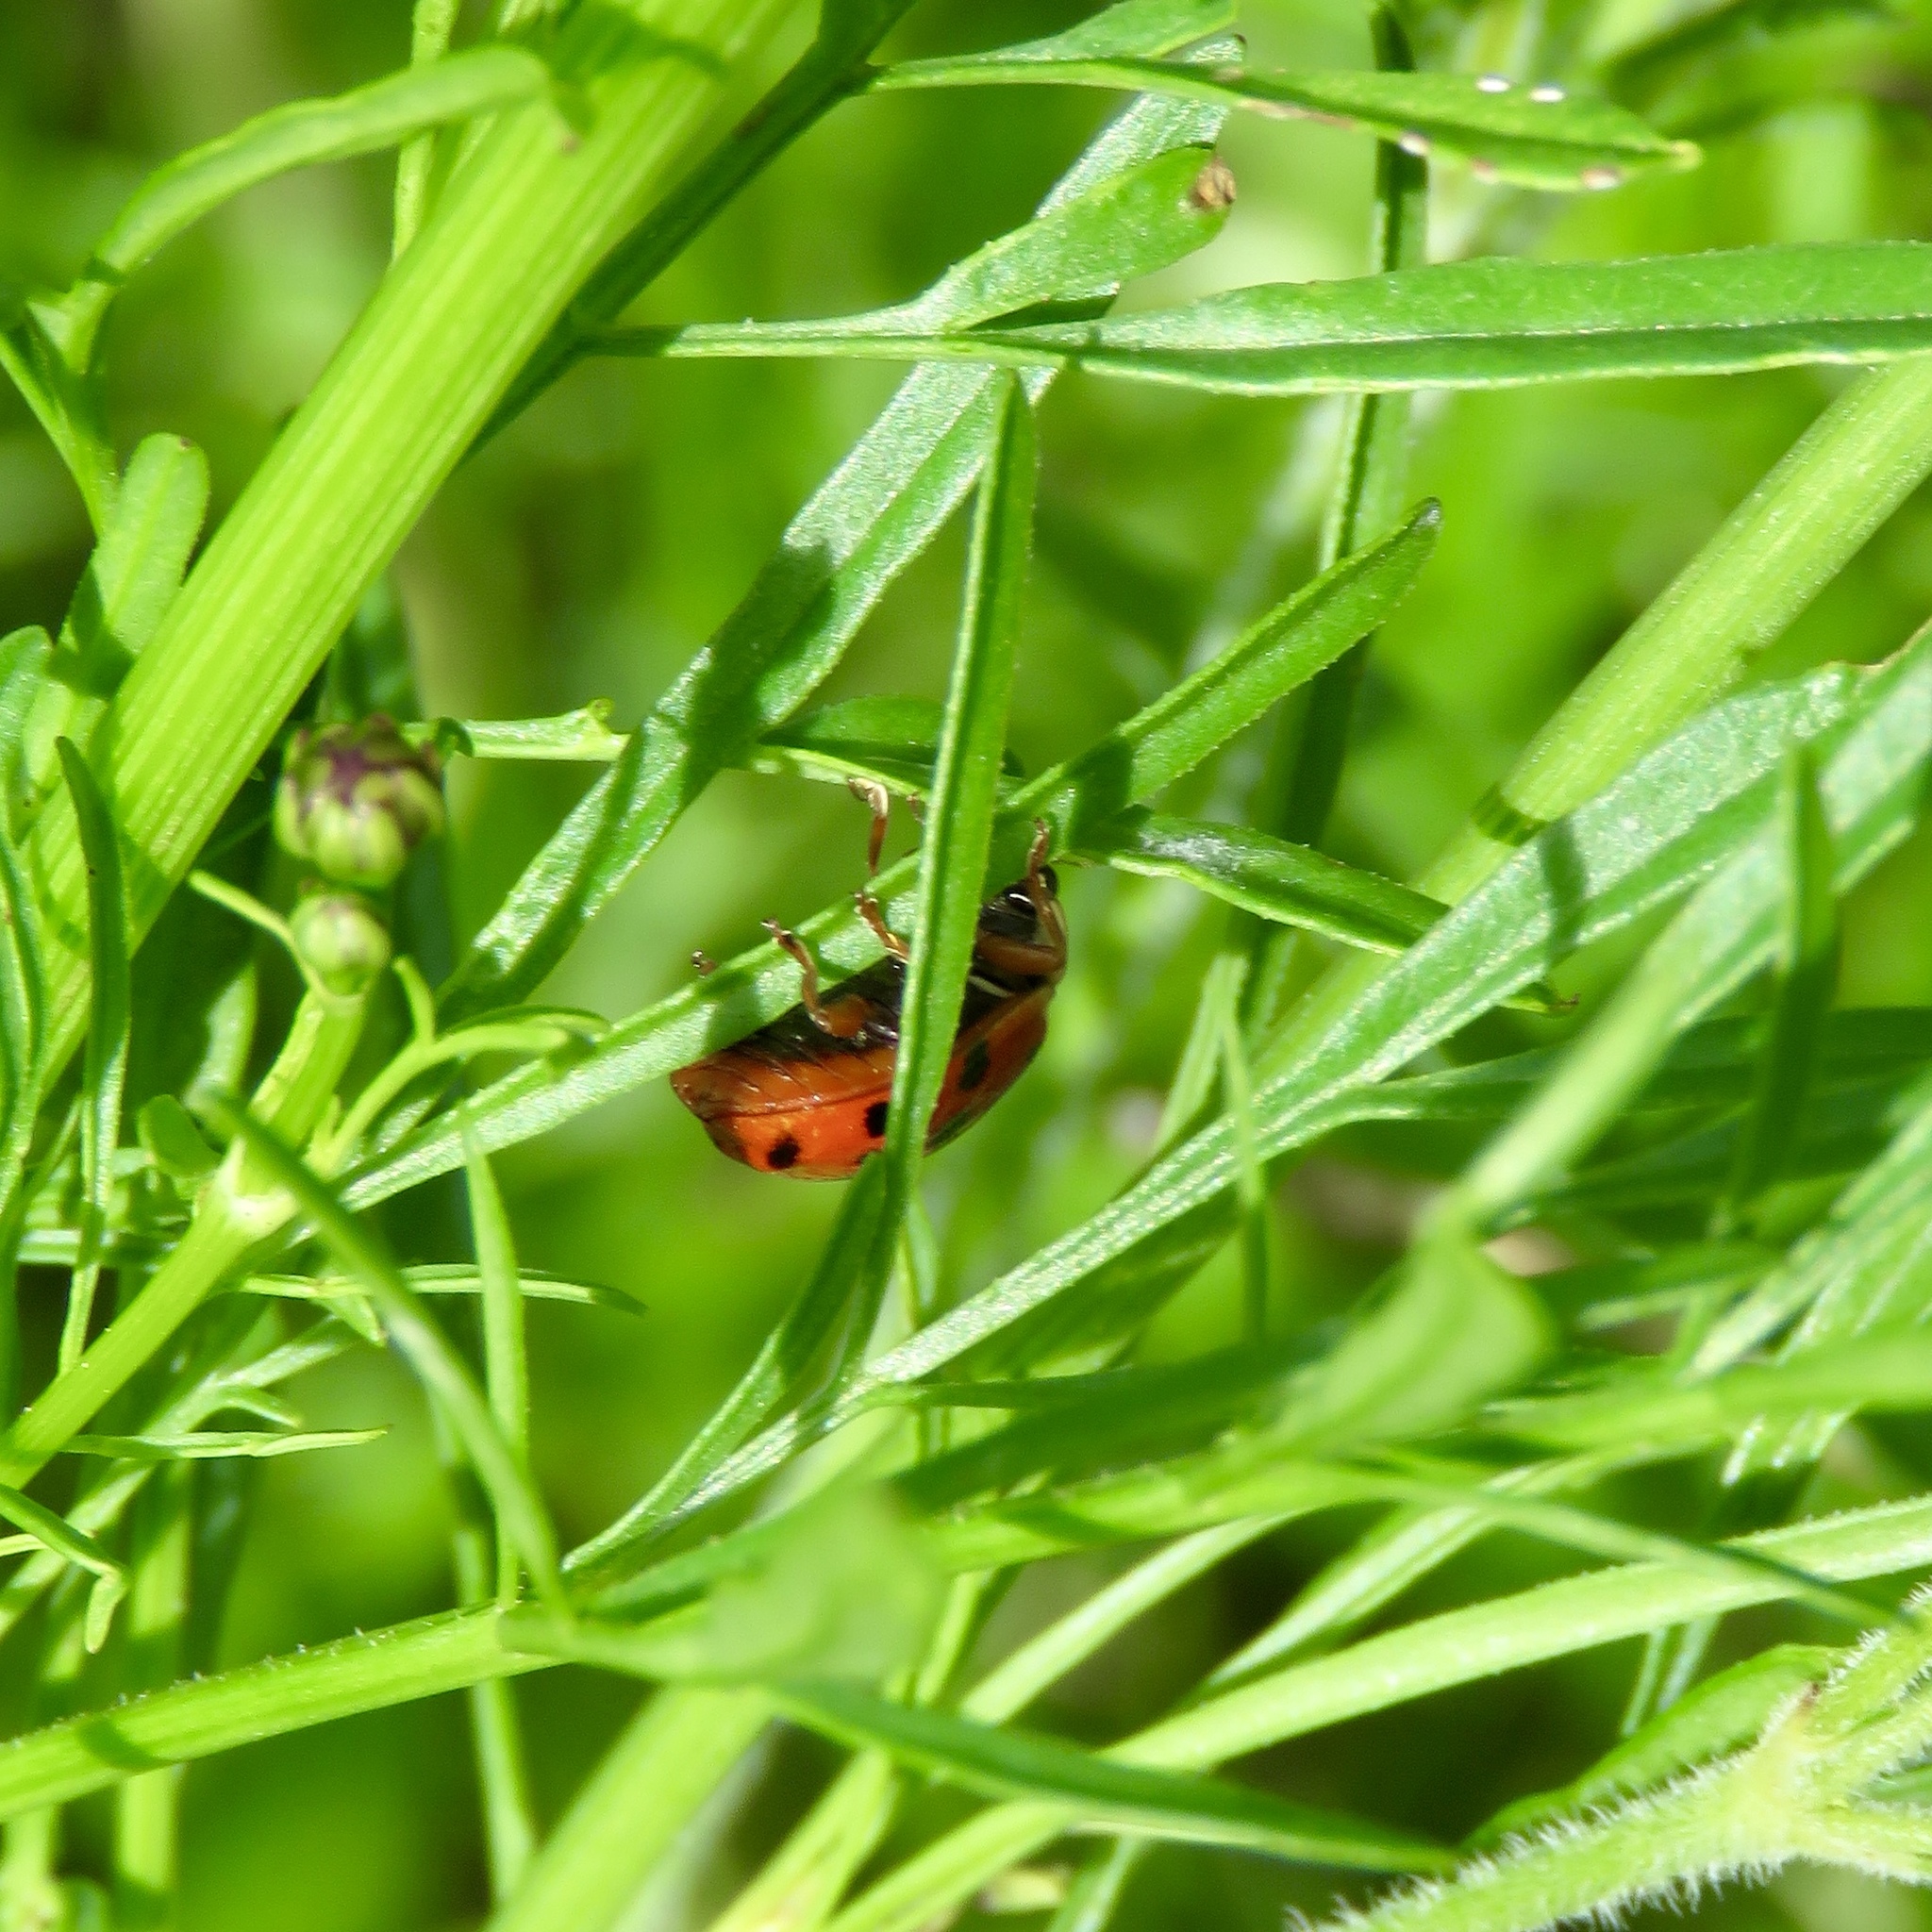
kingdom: Animalia
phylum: Arthropoda
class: Insecta
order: Coleoptera
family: Coccinellidae
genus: Harmonia
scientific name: Harmonia axyridis
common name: Harlequin ladybird
